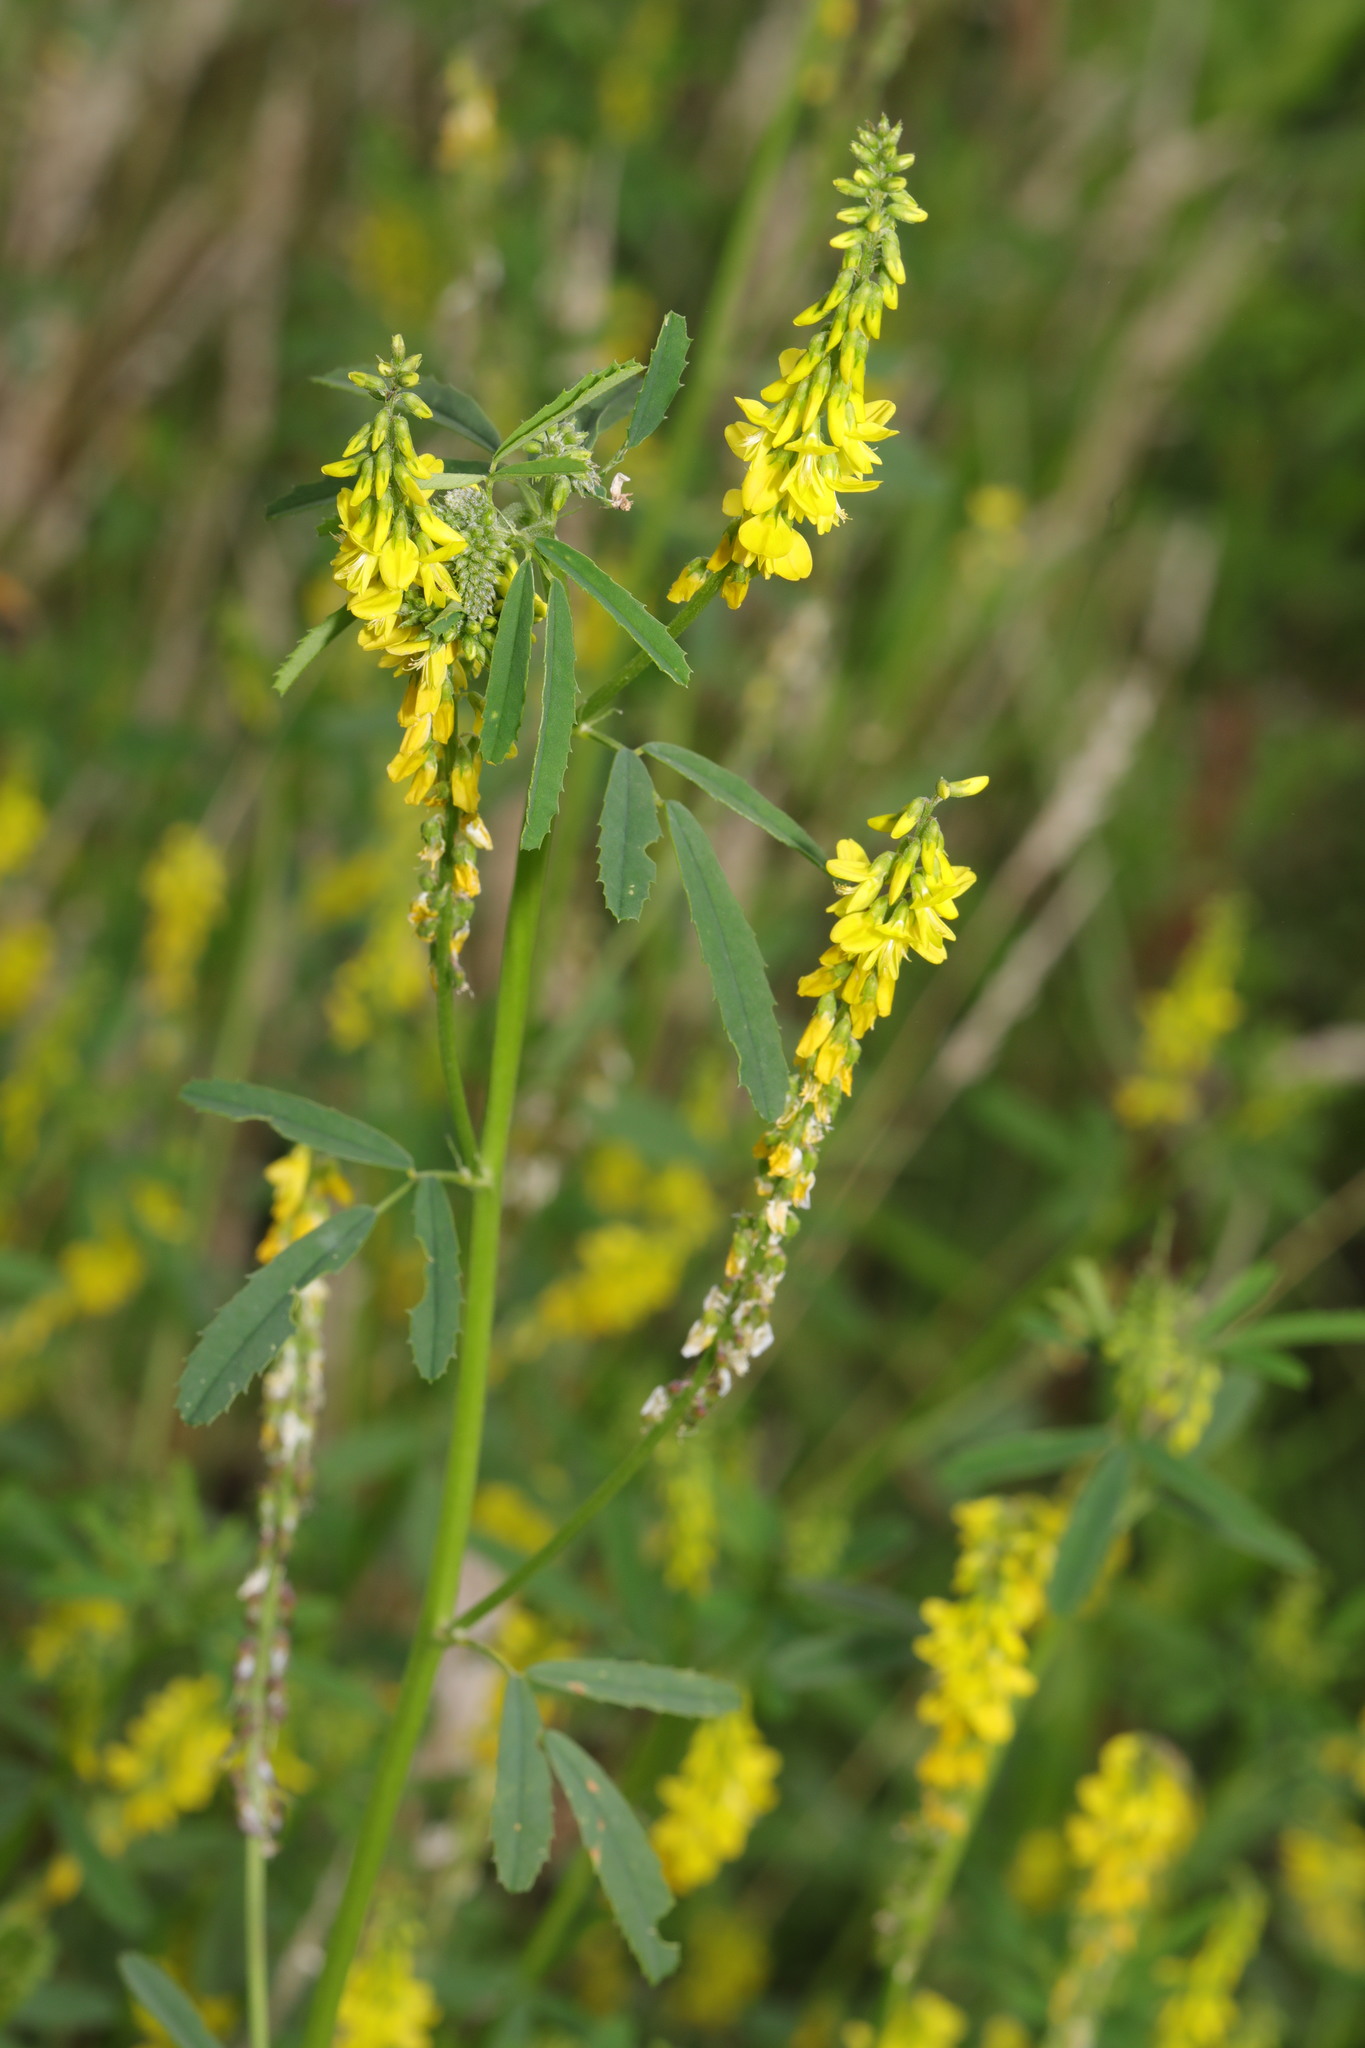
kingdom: Plantae
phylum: Tracheophyta
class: Magnoliopsida
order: Fabales
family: Fabaceae
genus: Melilotus
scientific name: Melilotus officinalis
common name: Sweetclover
